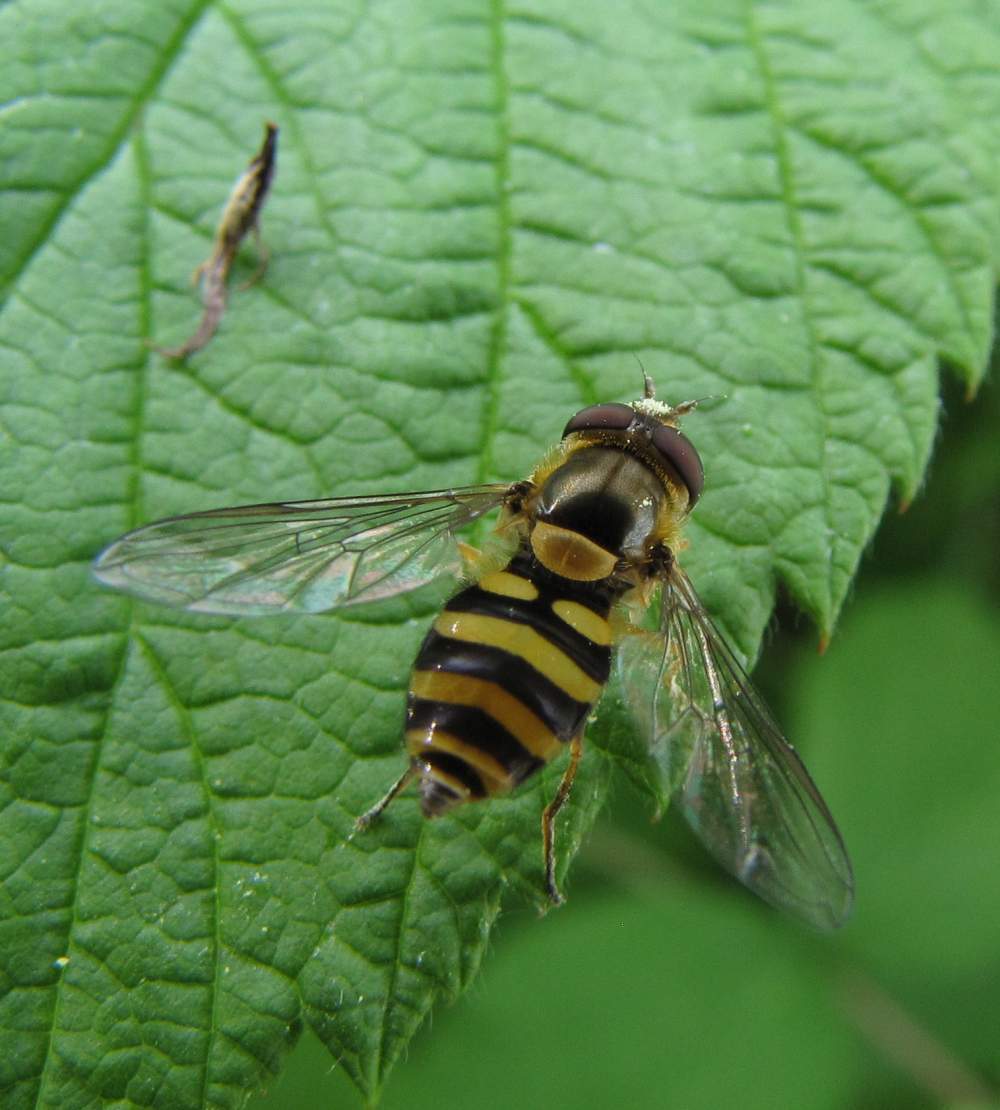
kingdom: Animalia
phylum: Arthropoda
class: Insecta
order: Diptera
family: Syrphidae
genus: Syrphus
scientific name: Syrphus
